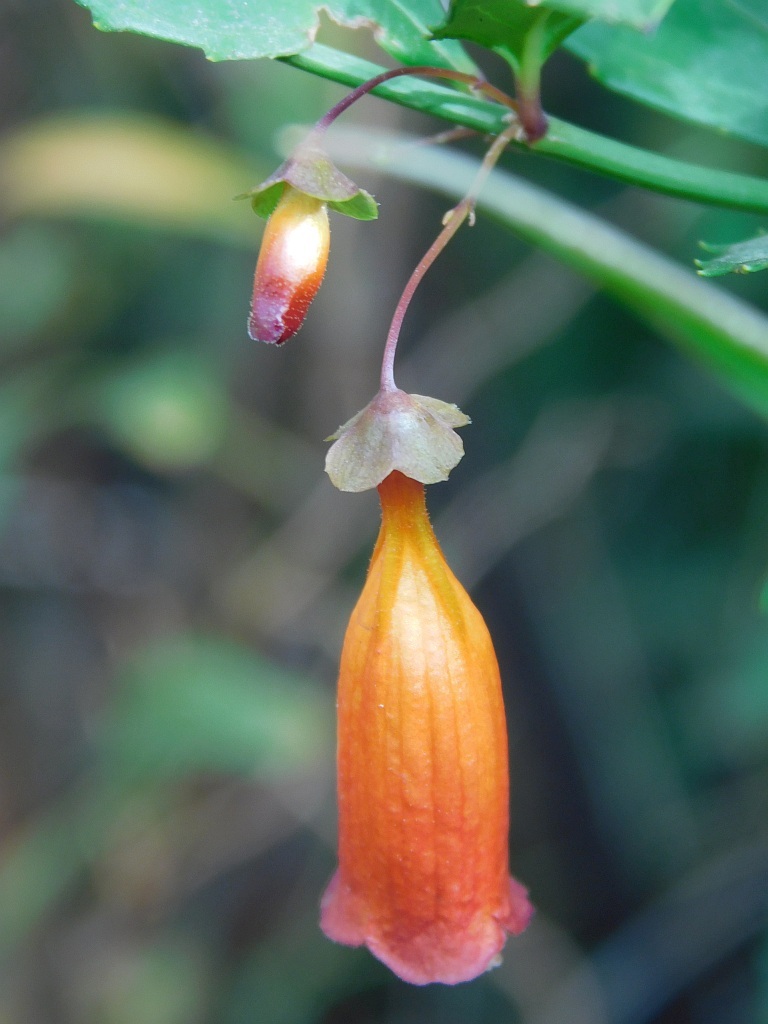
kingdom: Plantae
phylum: Tracheophyta
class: Magnoliopsida
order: Lamiales
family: Stilbaceae
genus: Halleria
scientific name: Halleria elliptica
